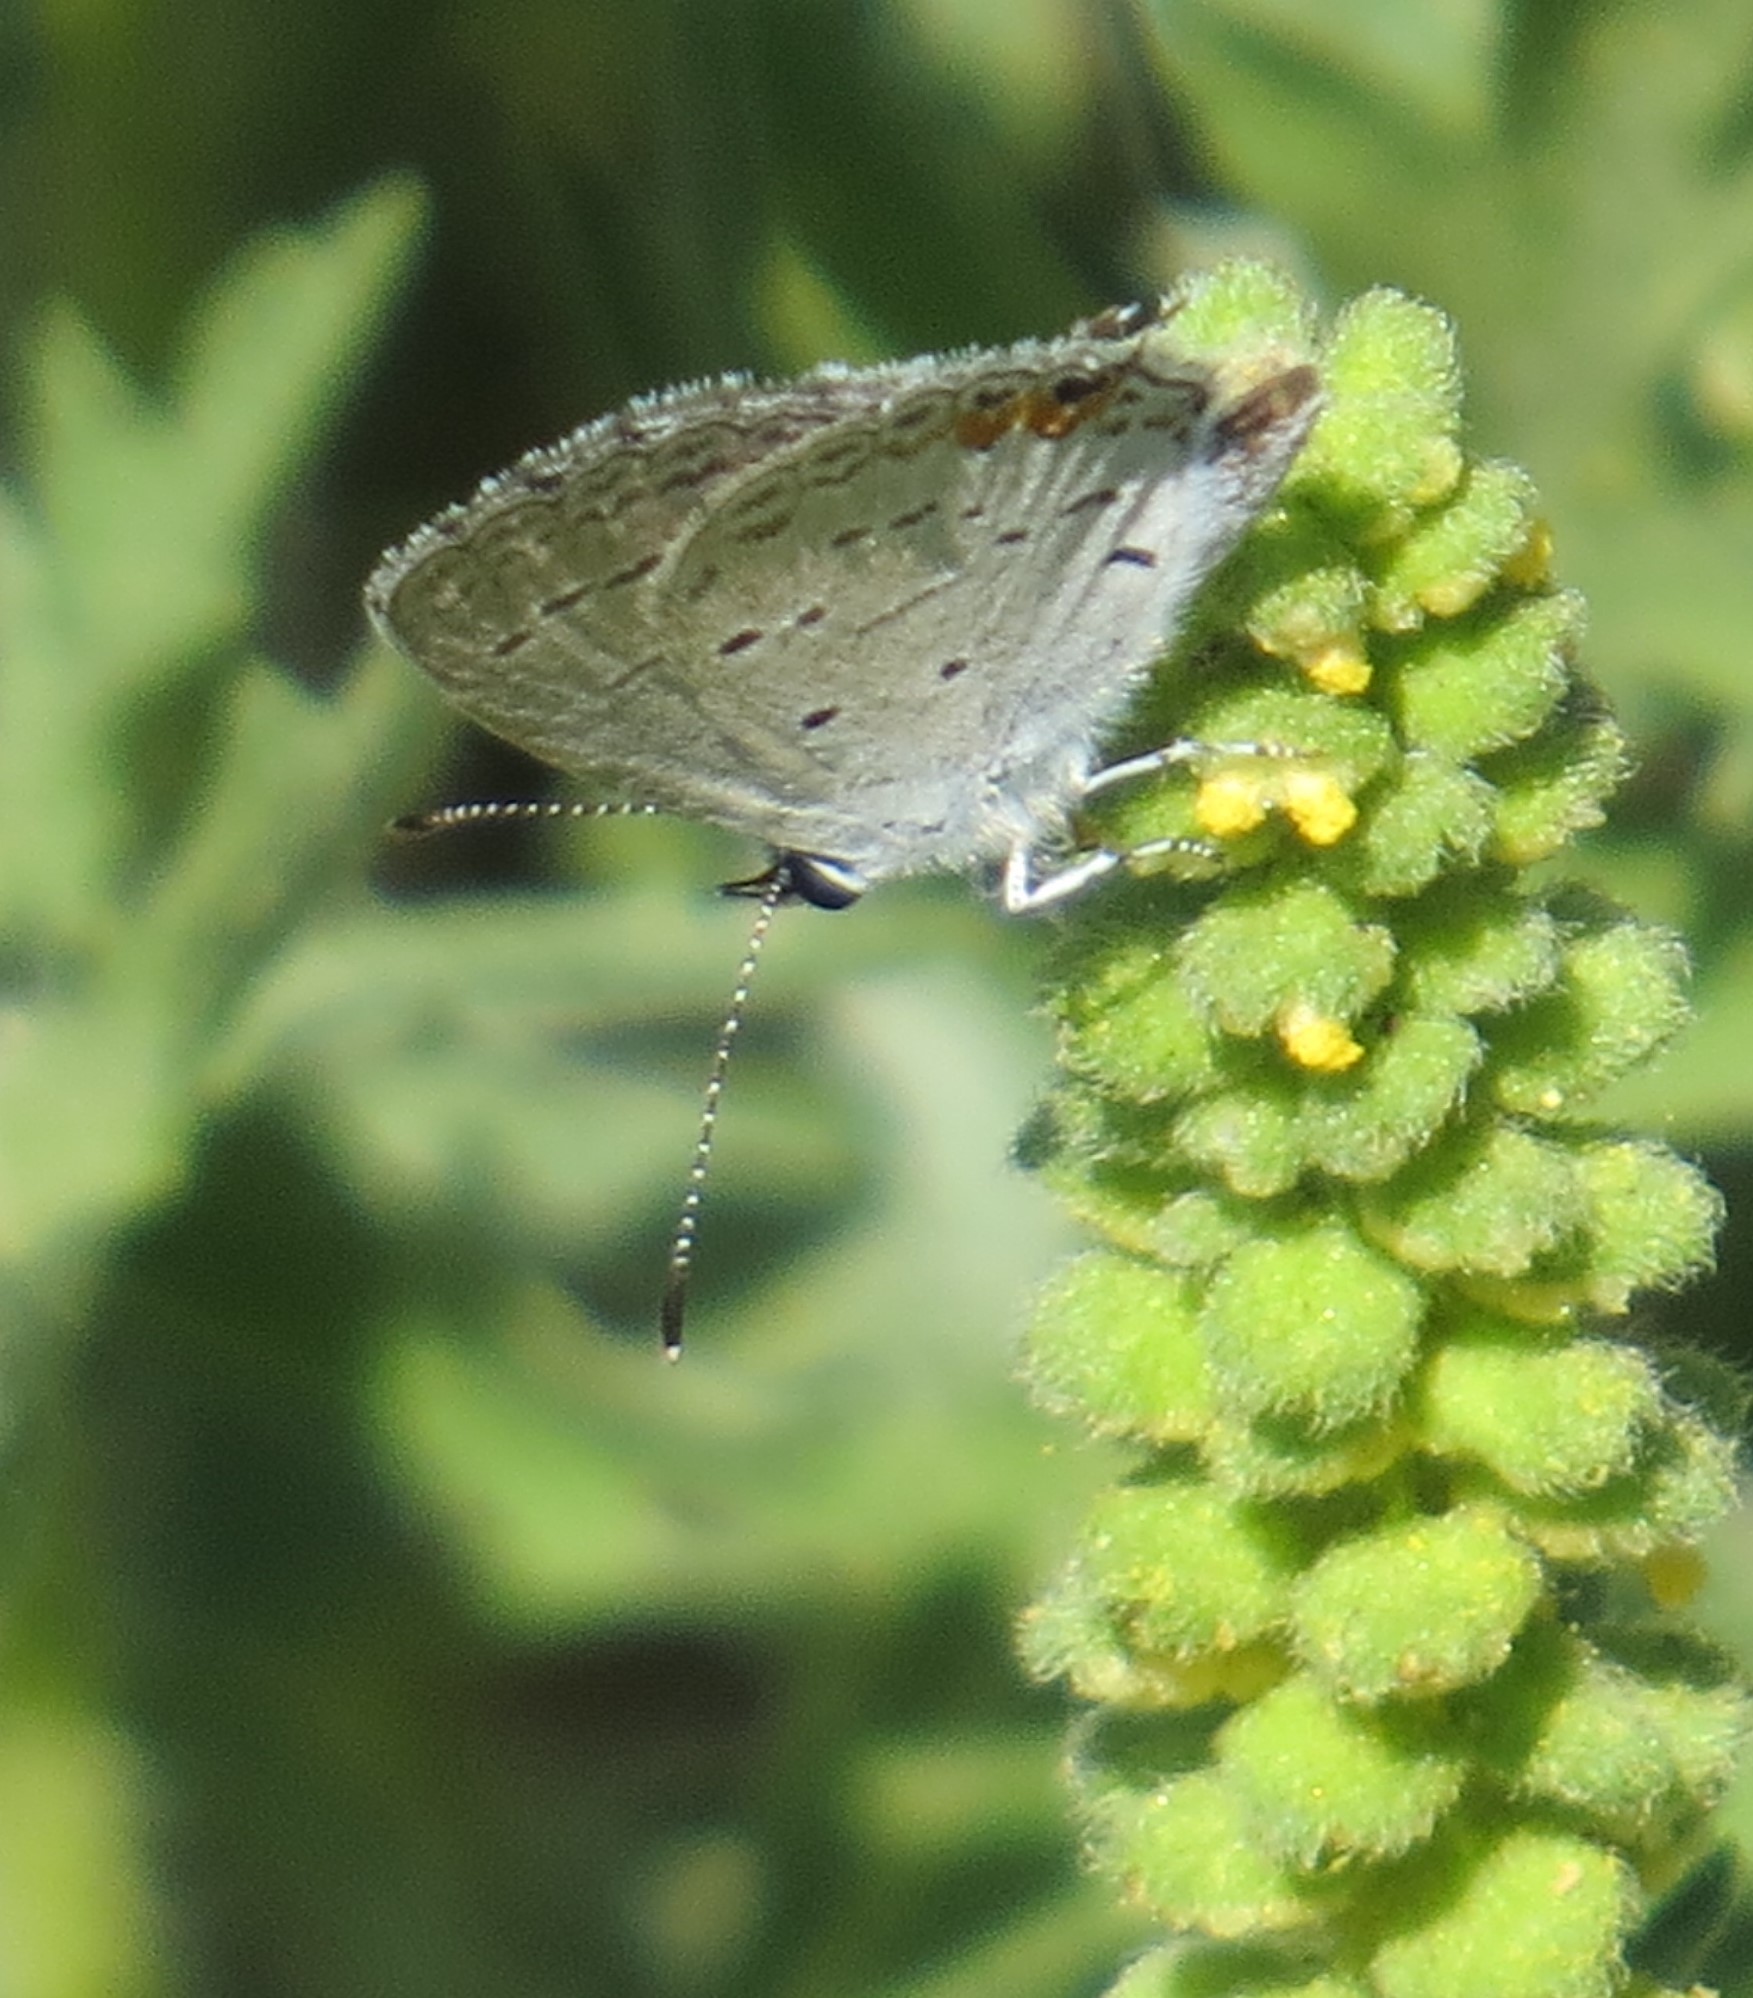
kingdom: Animalia
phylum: Arthropoda
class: Insecta
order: Lepidoptera
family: Lycaenidae
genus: Elkalyce
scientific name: Elkalyce comyntas
